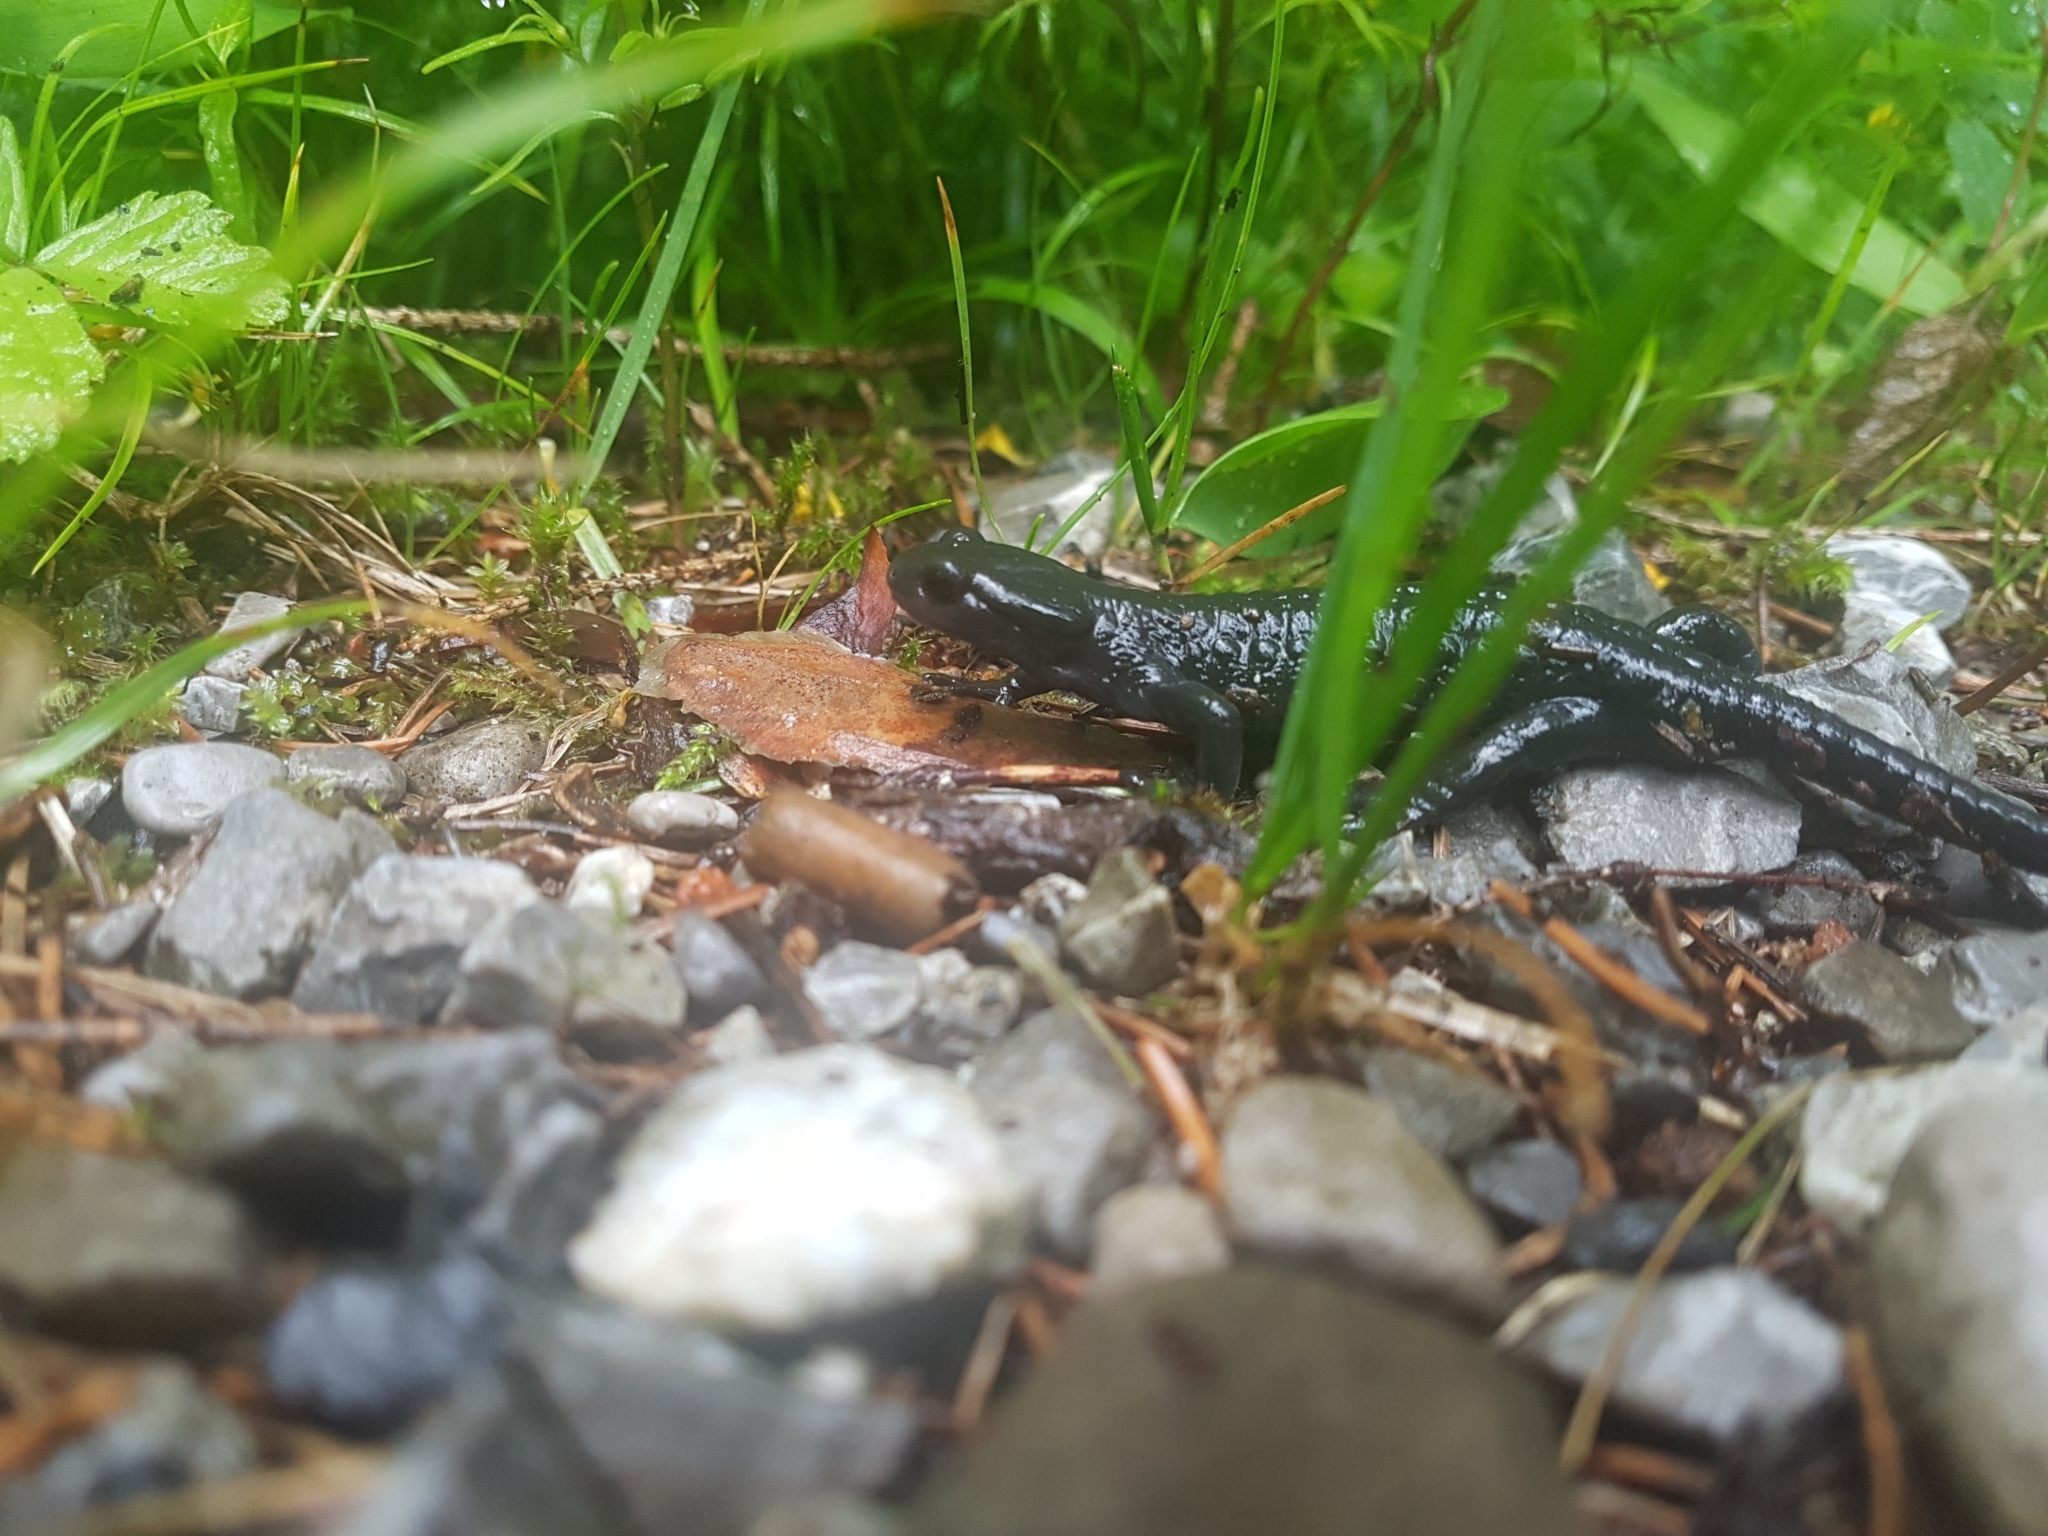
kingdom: Animalia
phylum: Chordata
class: Amphibia
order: Caudata
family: Salamandridae
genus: Salamandra
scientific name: Salamandra atra
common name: Alpine salamander
